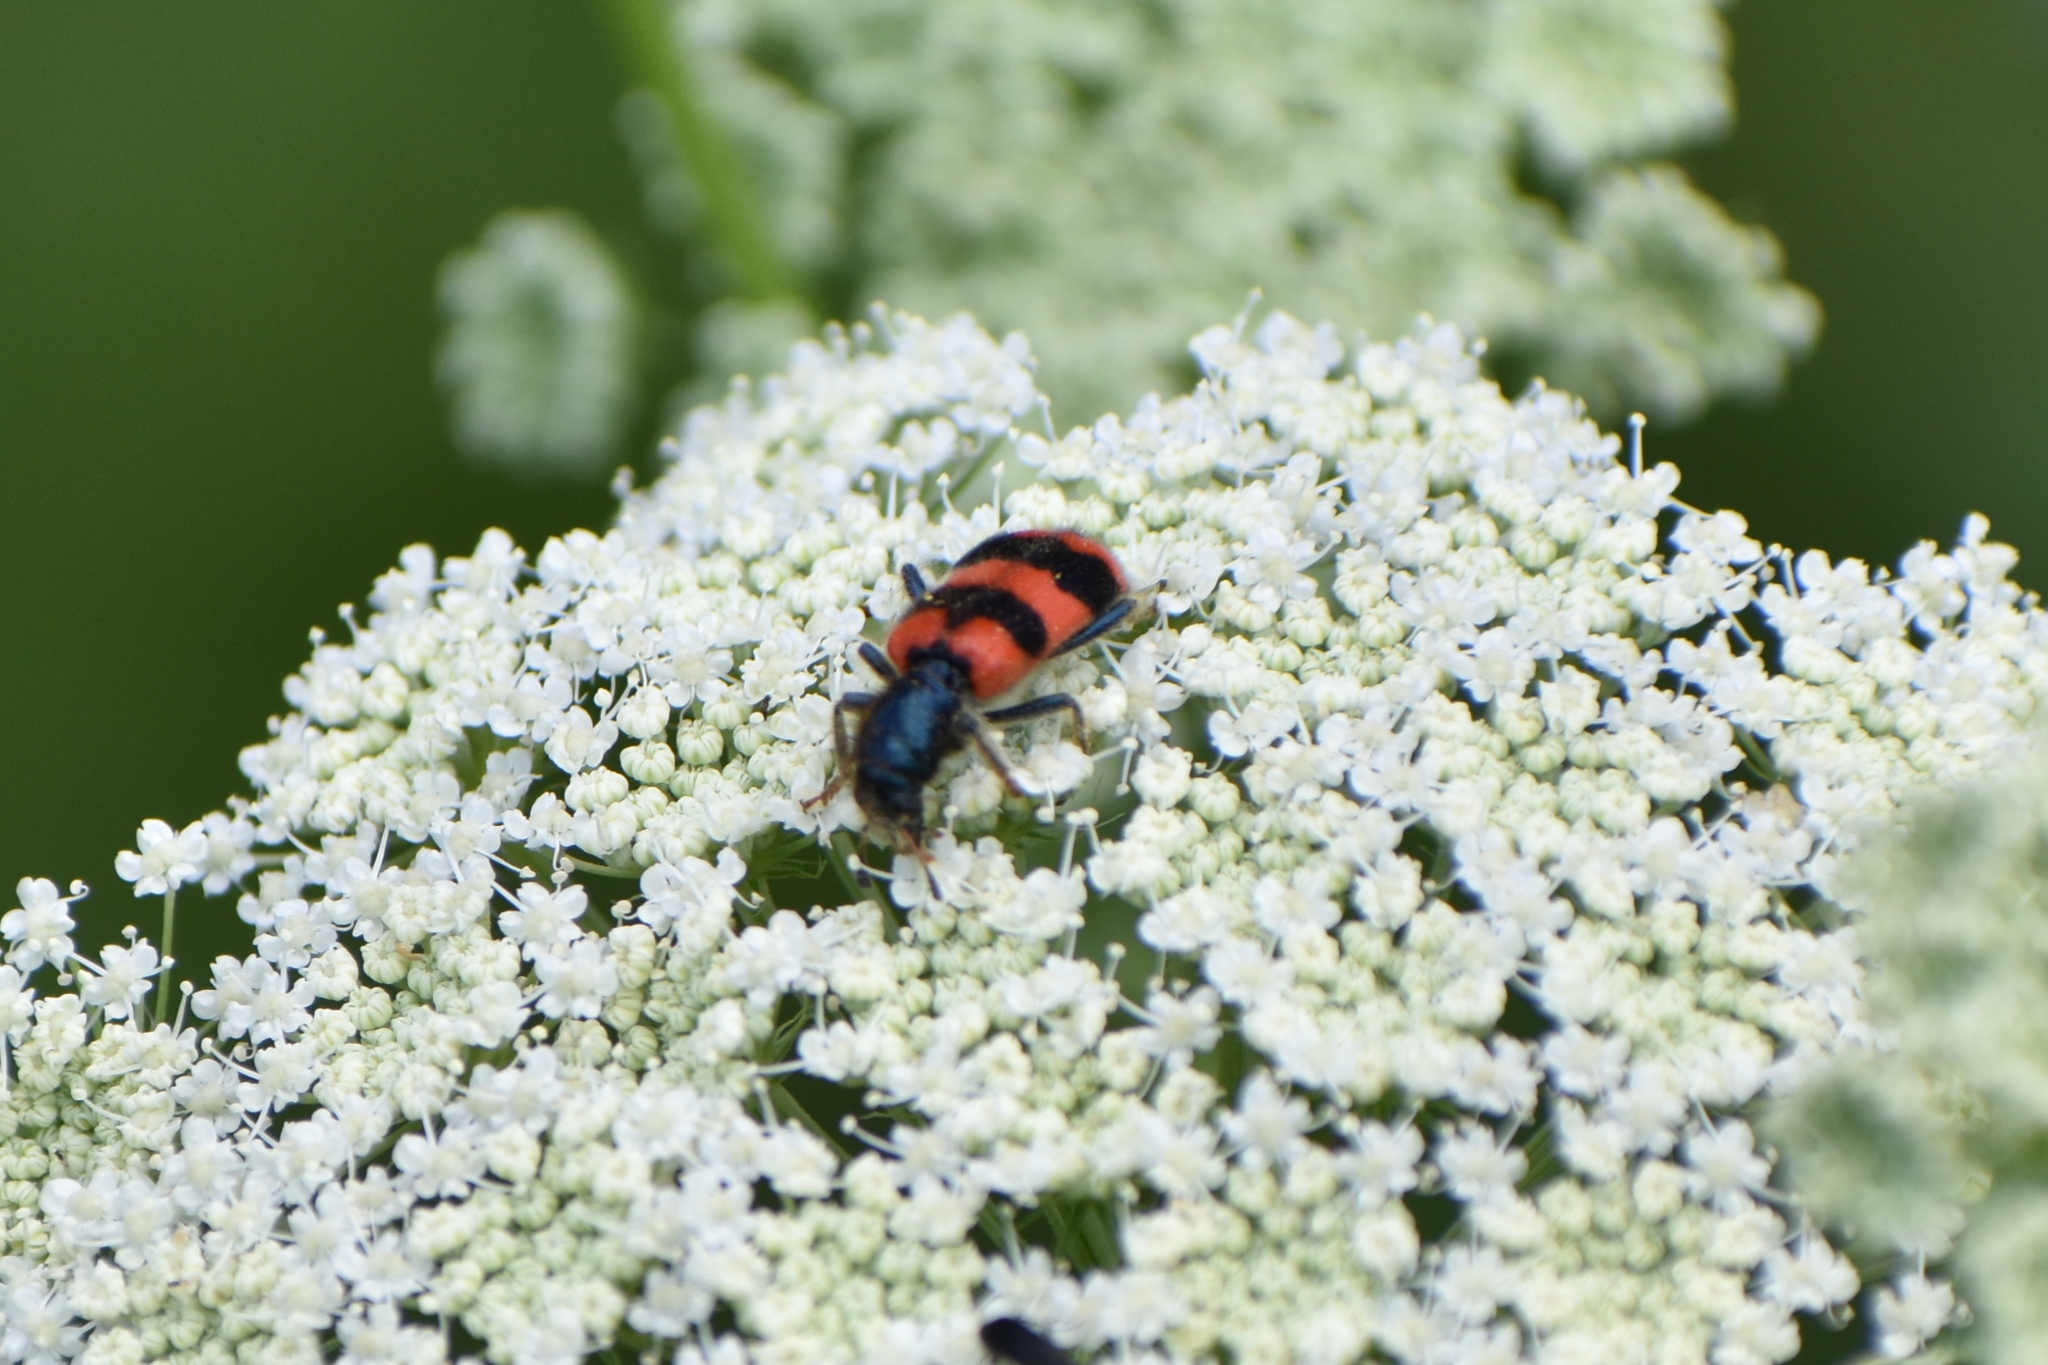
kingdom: Animalia
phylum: Arthropoda
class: Insecta
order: Coleoptera
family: Cleridae
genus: Trichodes
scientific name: Trichodes apiarius
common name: Bee-eating beetle
